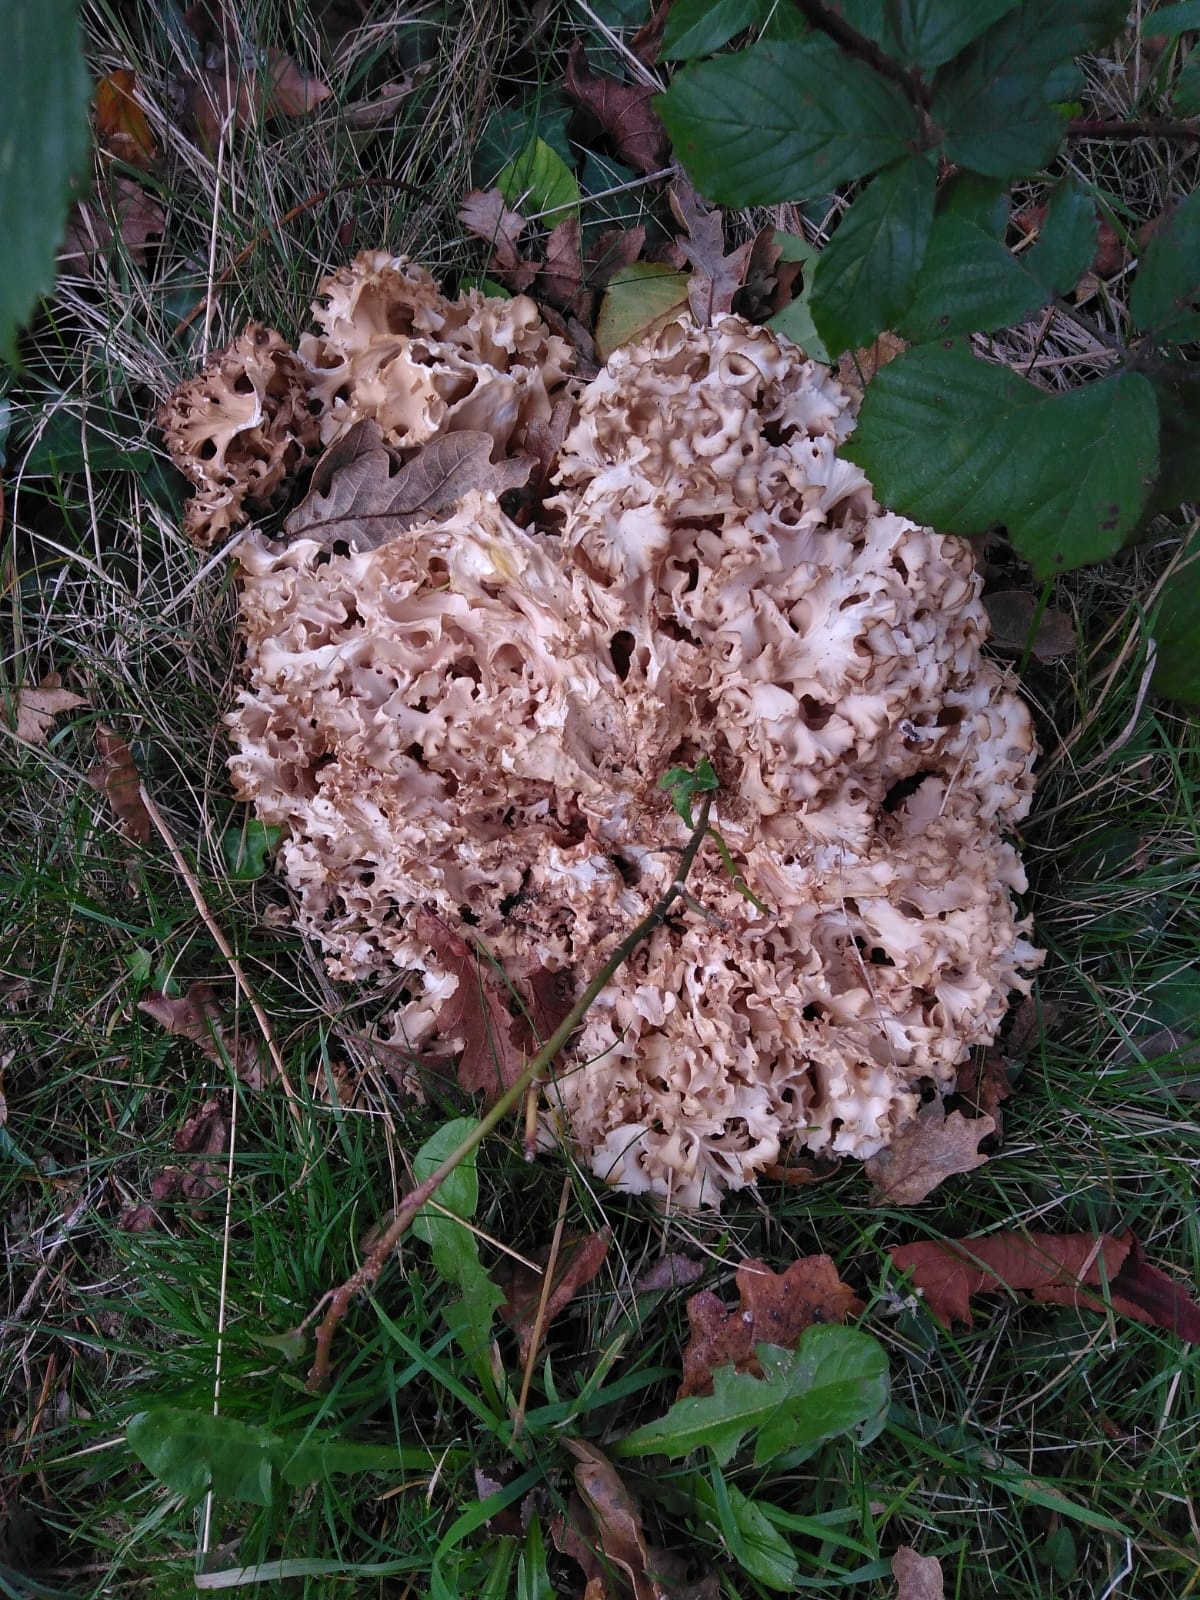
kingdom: Fungi
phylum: Basidiomycota
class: Agaricomycetes
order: Polyporales
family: Sparassidaceae
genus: Sparassis
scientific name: Sparassis crispa
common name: Brain fungus
